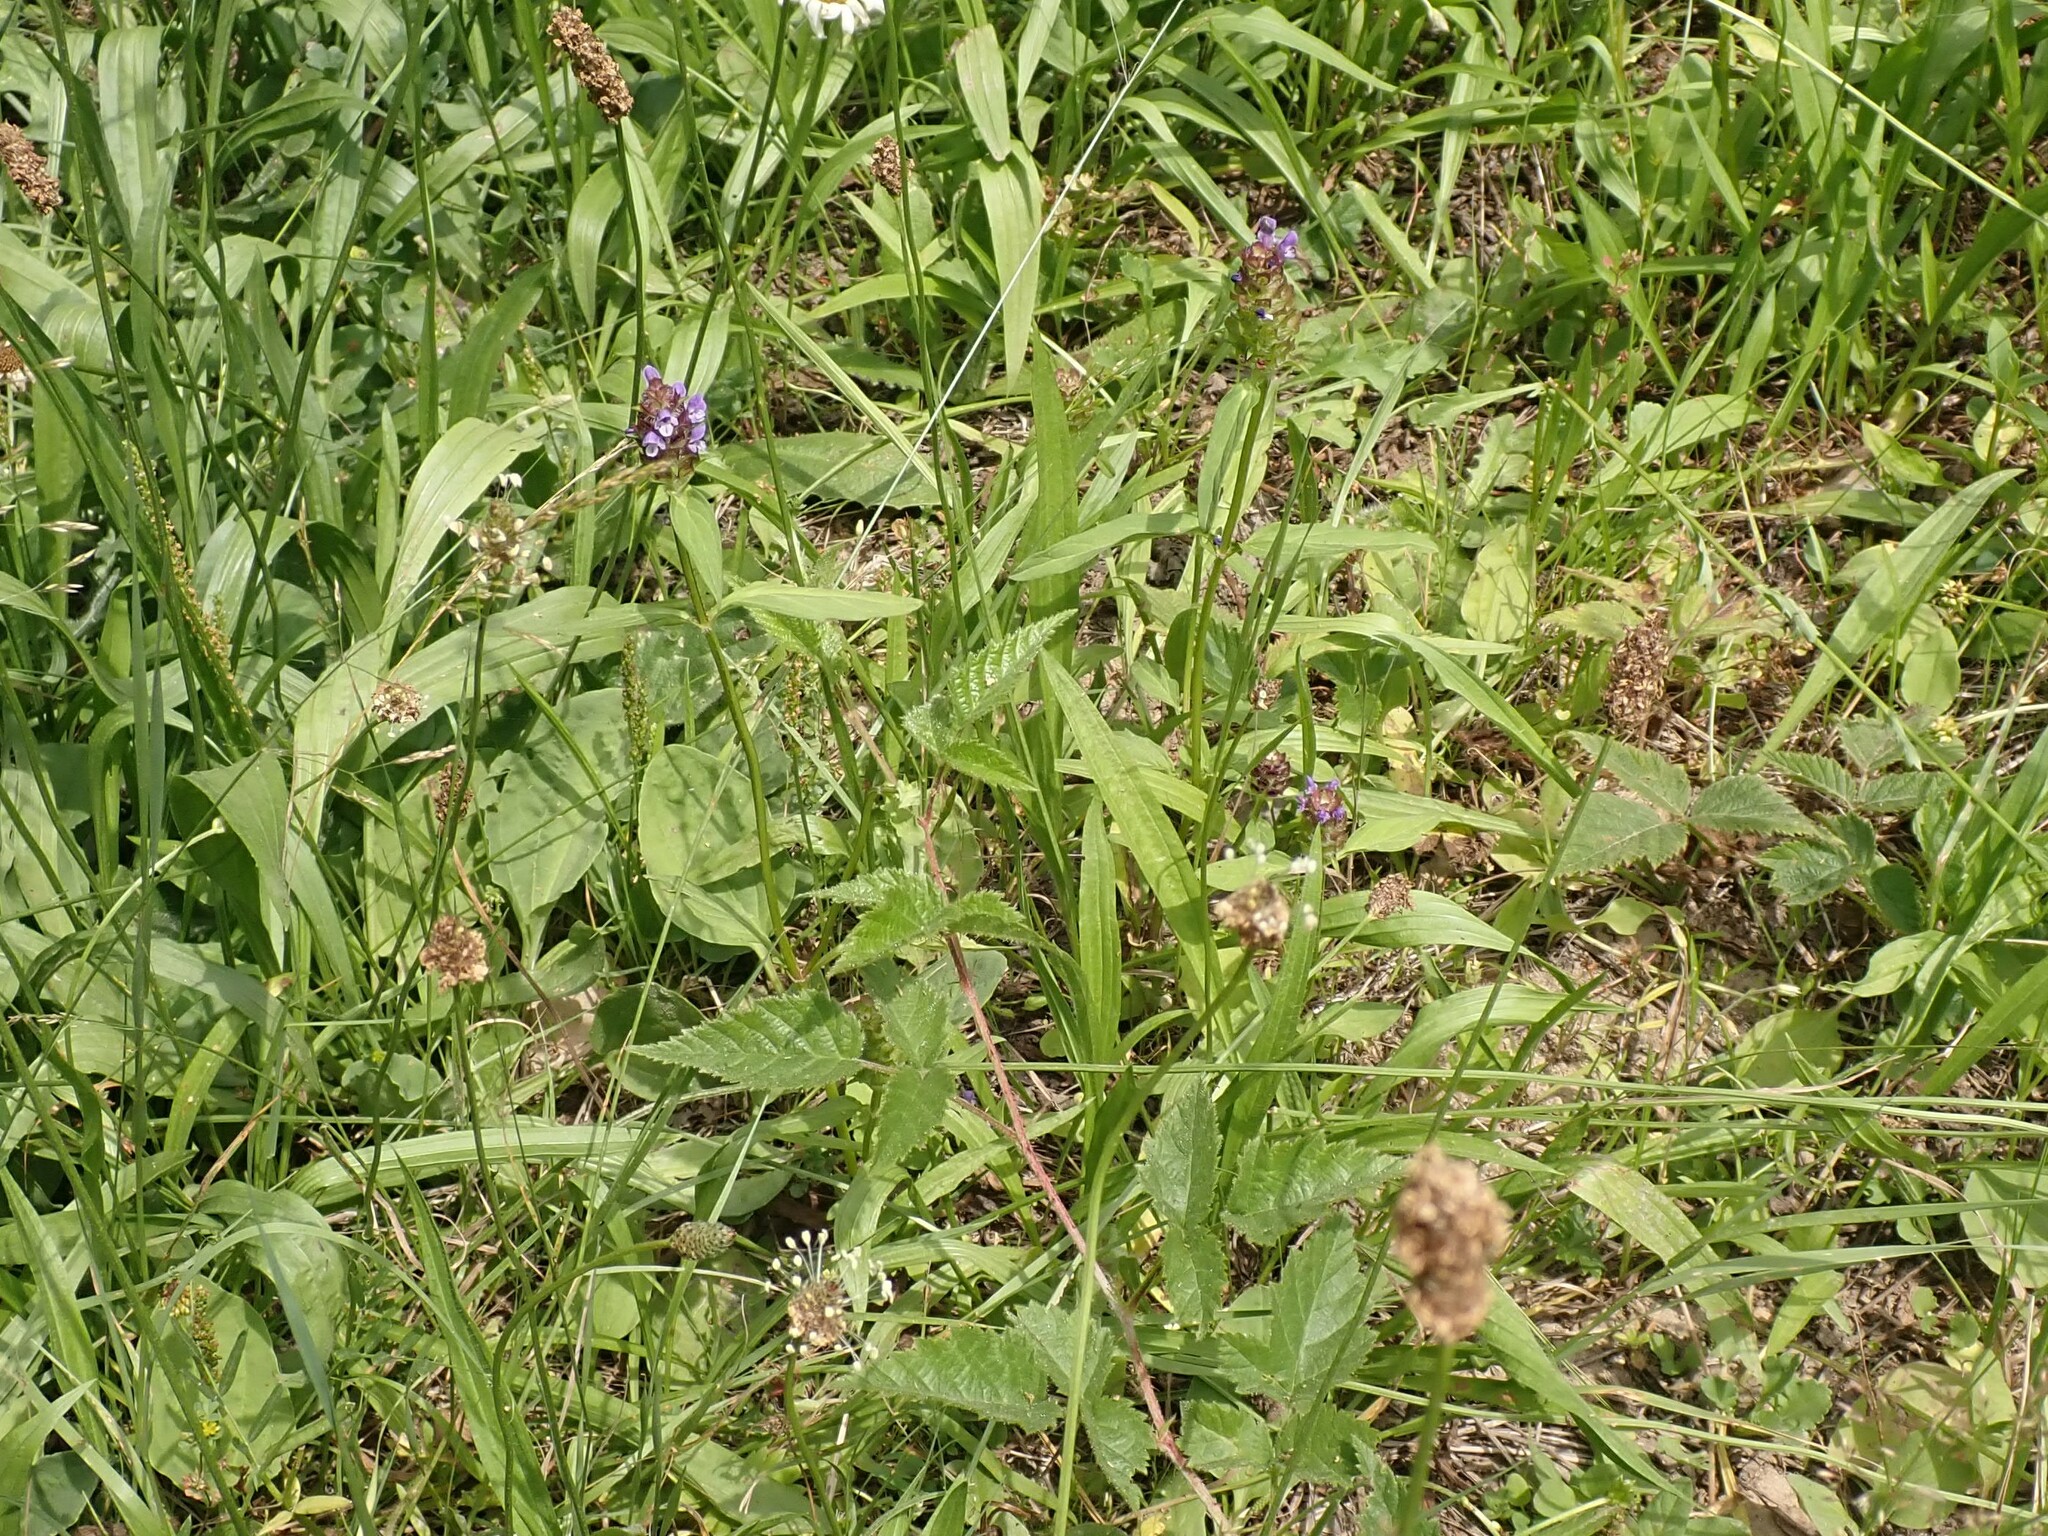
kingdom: Plantae
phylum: Tracheophyta
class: Magnoliopsida
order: Lamiales
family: Lamiaceae
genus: Prunella
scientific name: Prunella vulgaris
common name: Heal-all
